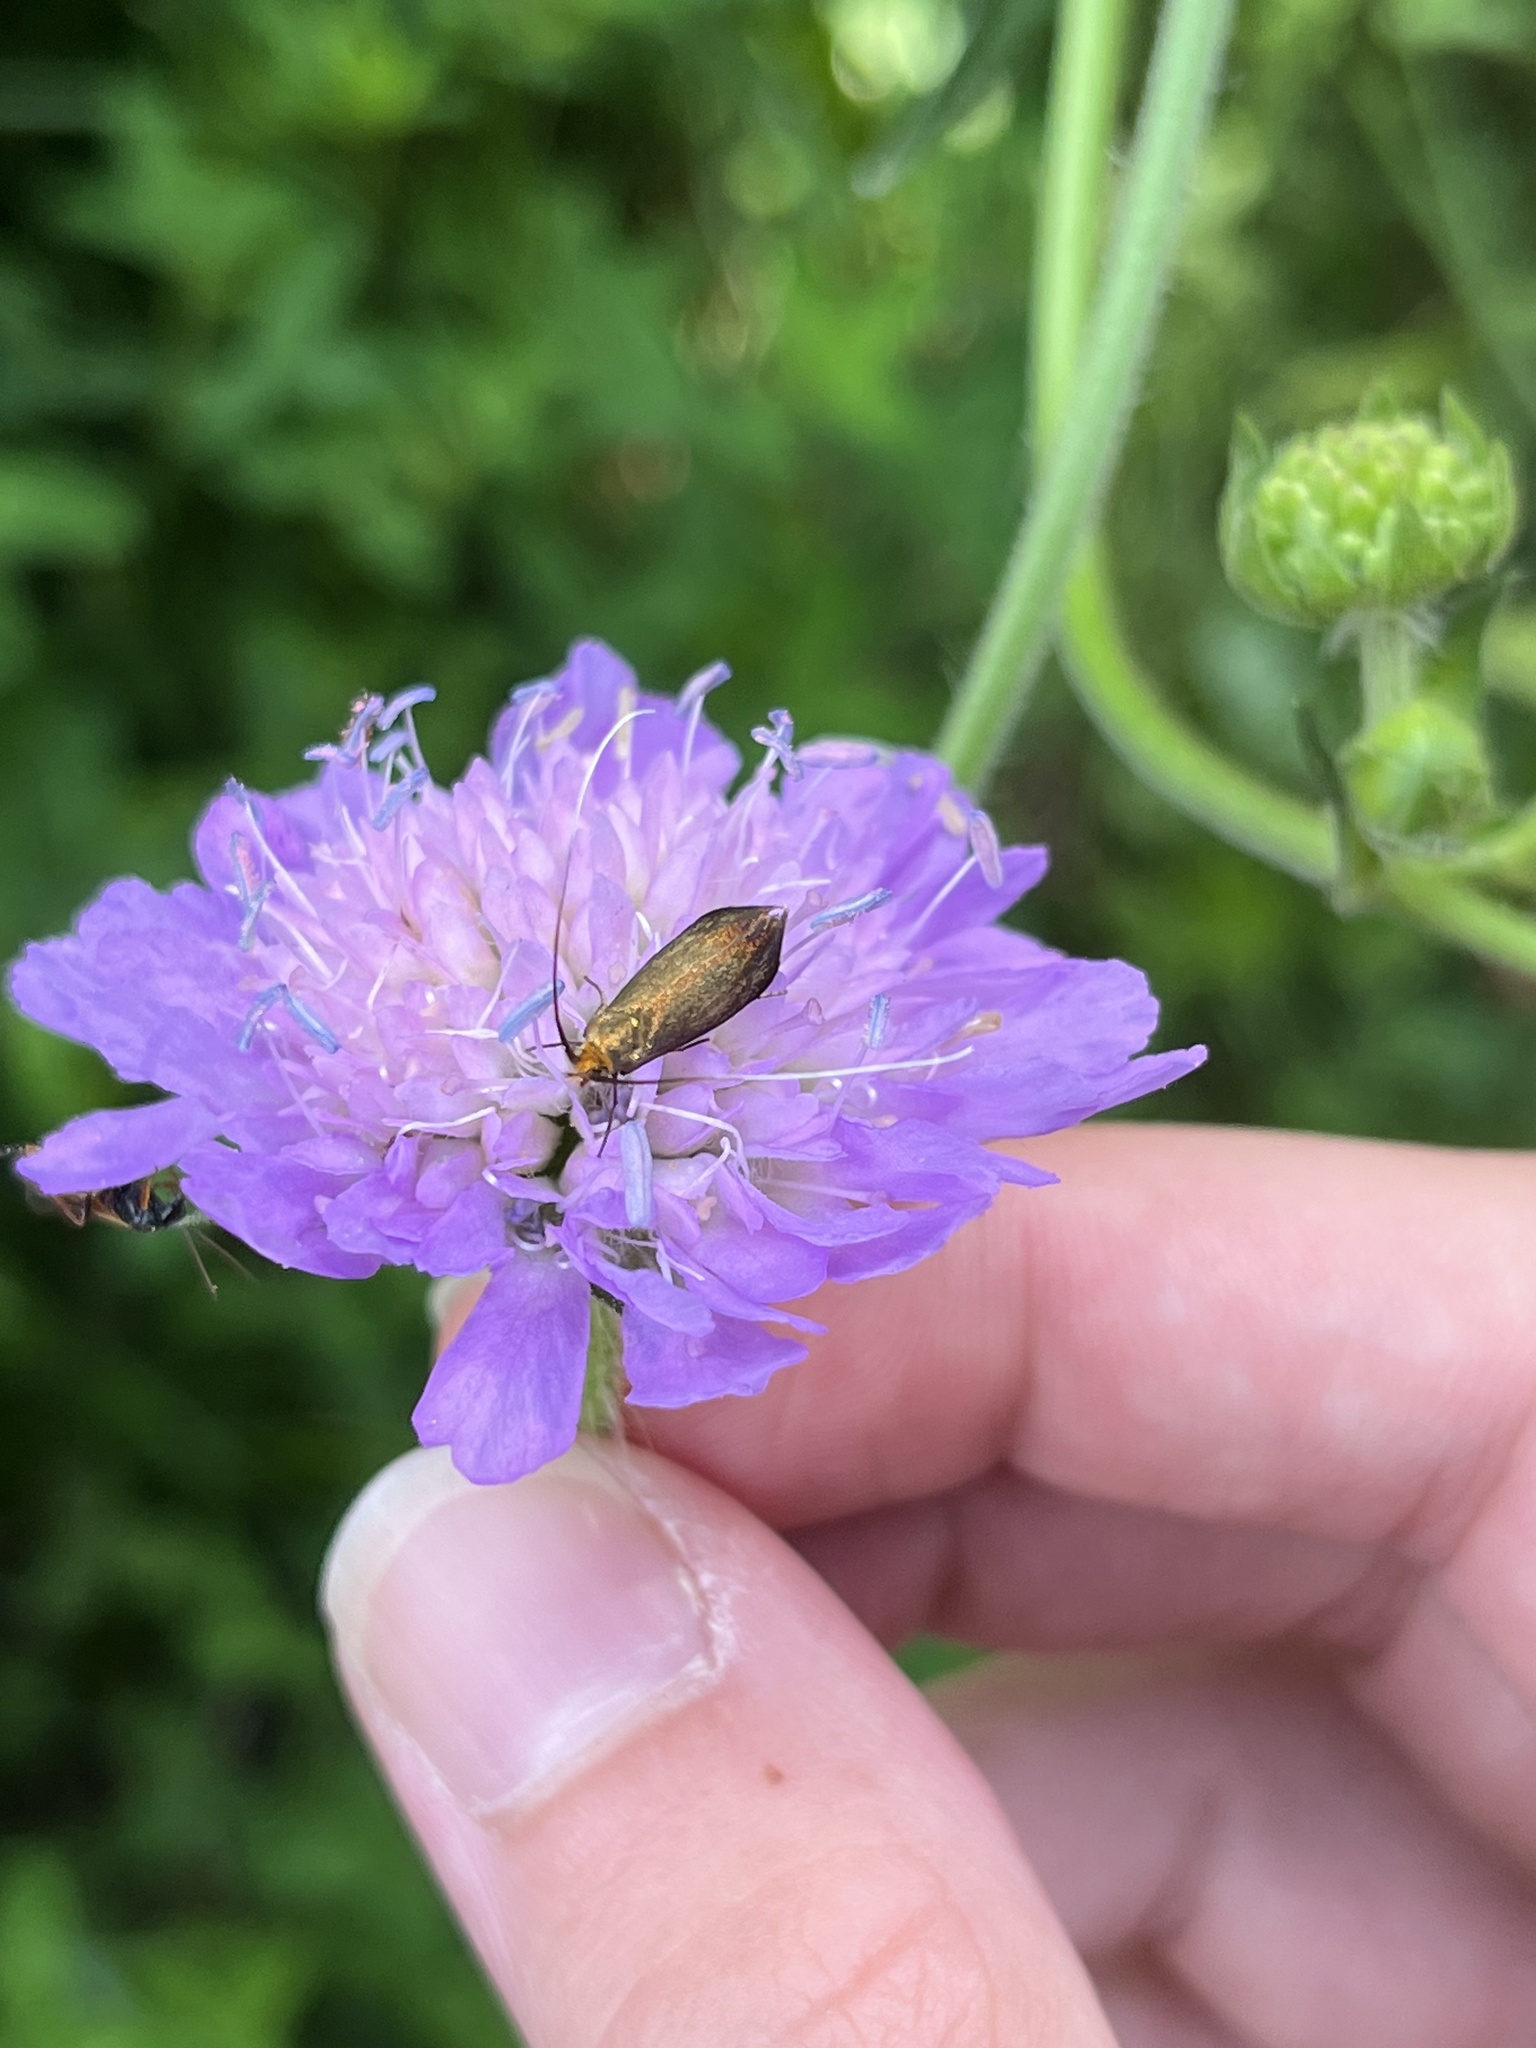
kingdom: Animalia
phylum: Arthropoda
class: Insecta
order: Lepidoptera
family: Adelidae
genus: Nemophora
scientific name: Nemophora metallica
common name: Brassy long-horn
